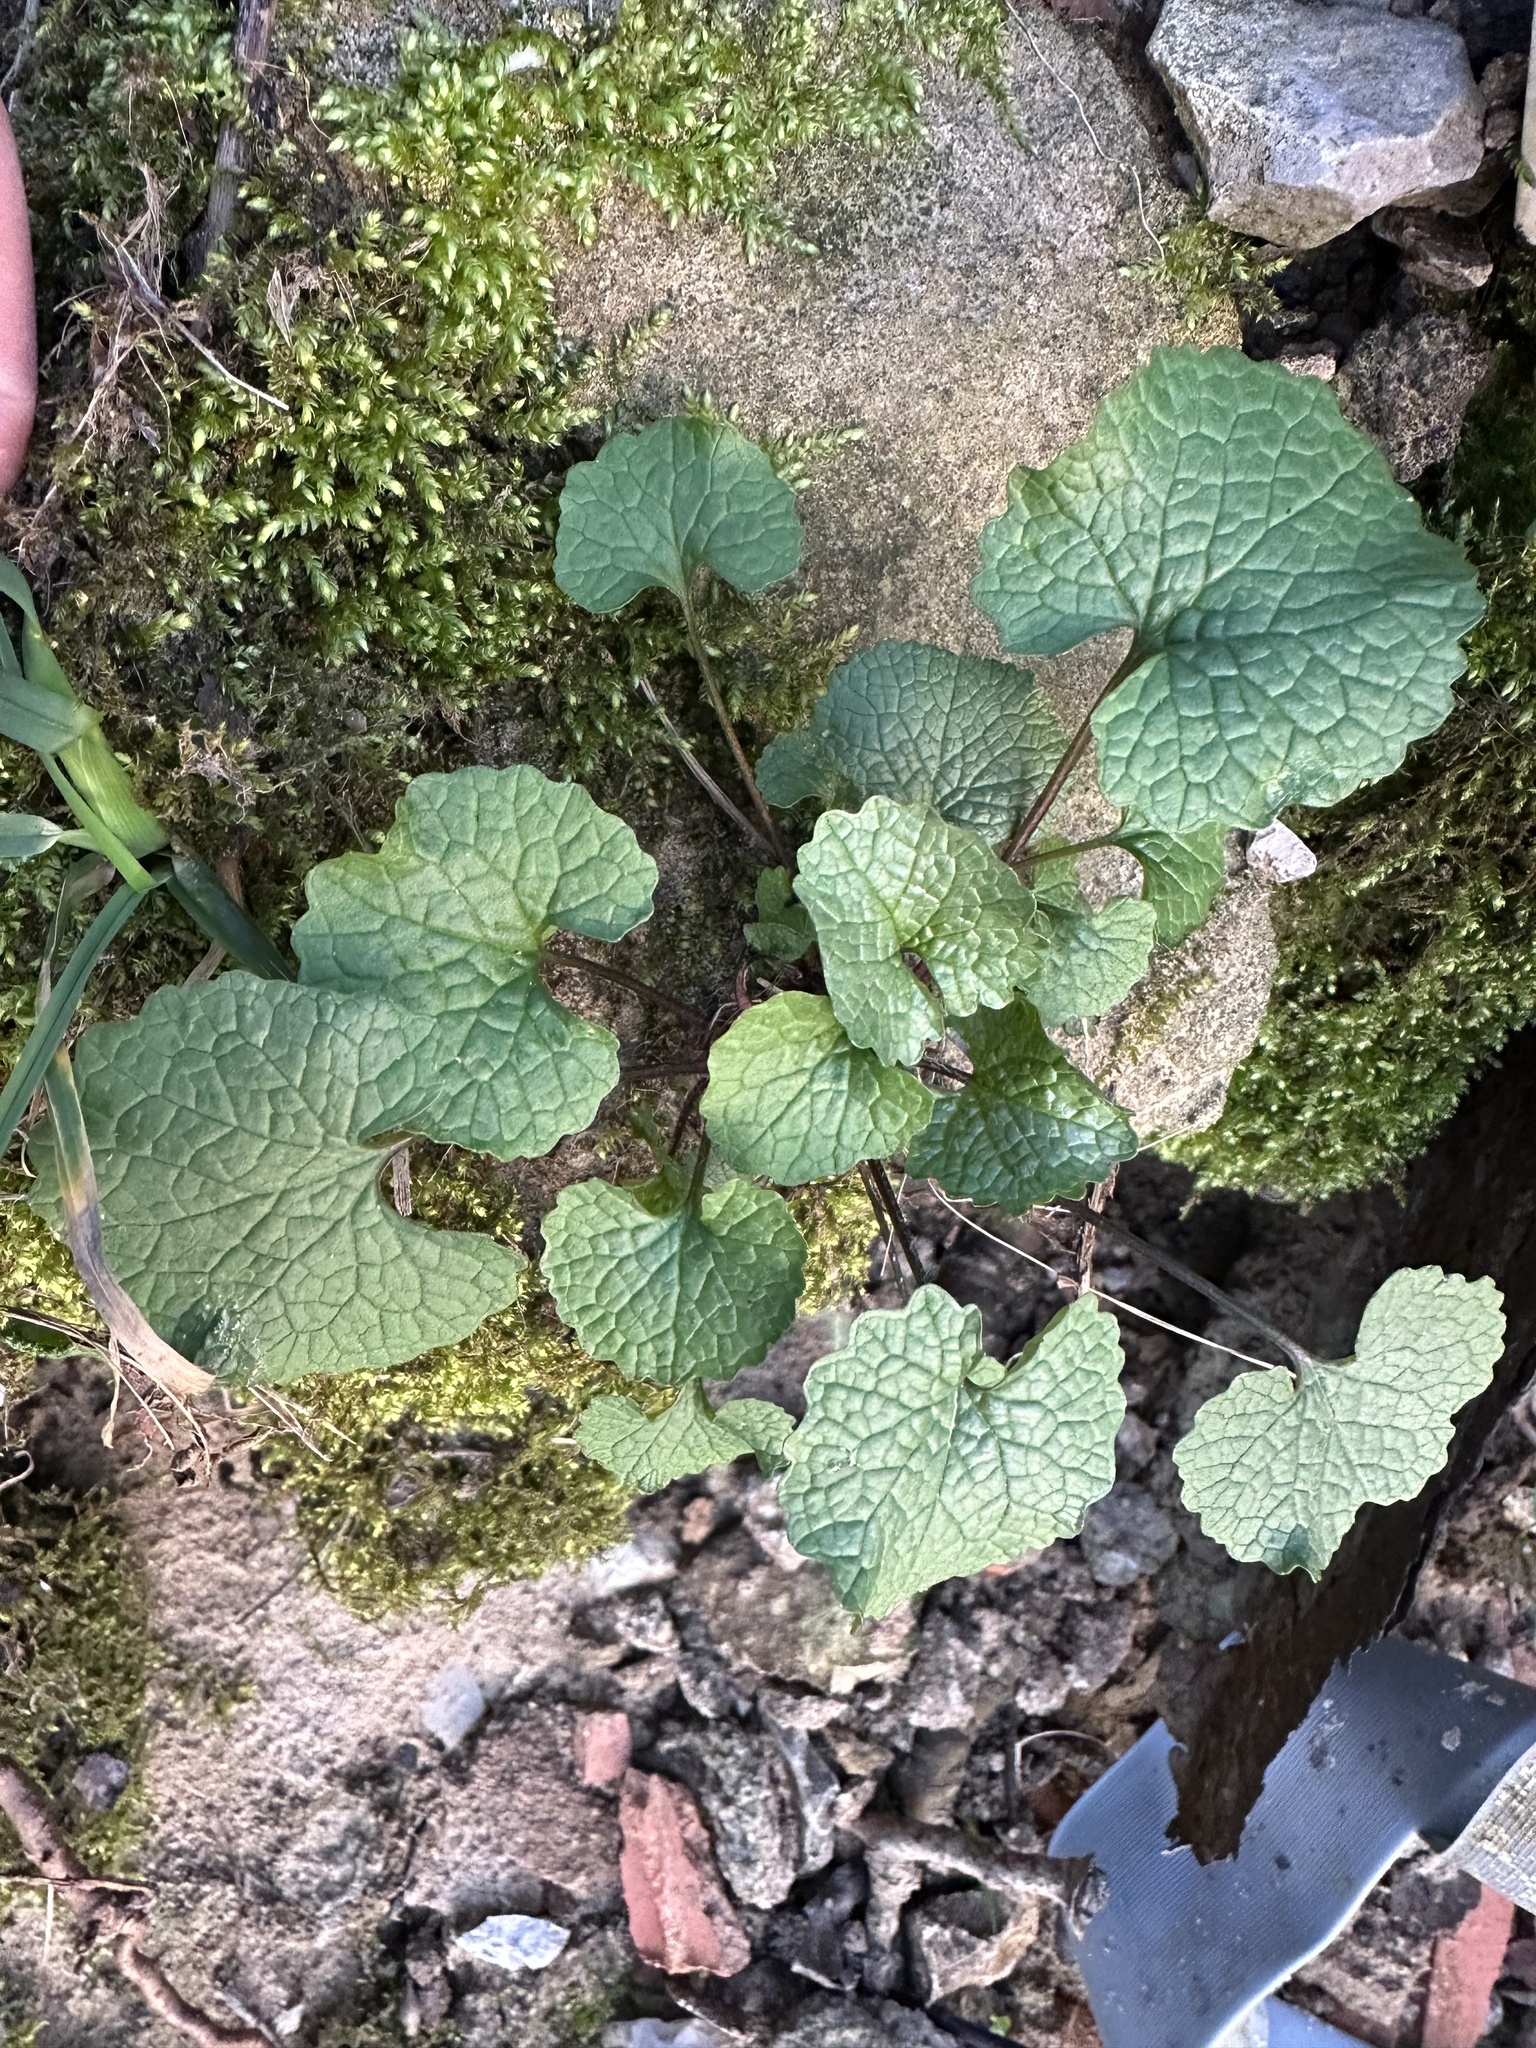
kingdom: Plantae
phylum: Tracheophyta
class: Magnoliopsida
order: Brassicales
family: Brassicaceae
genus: Alliaria
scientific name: Alliaria petiolata
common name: Garlic mustard
